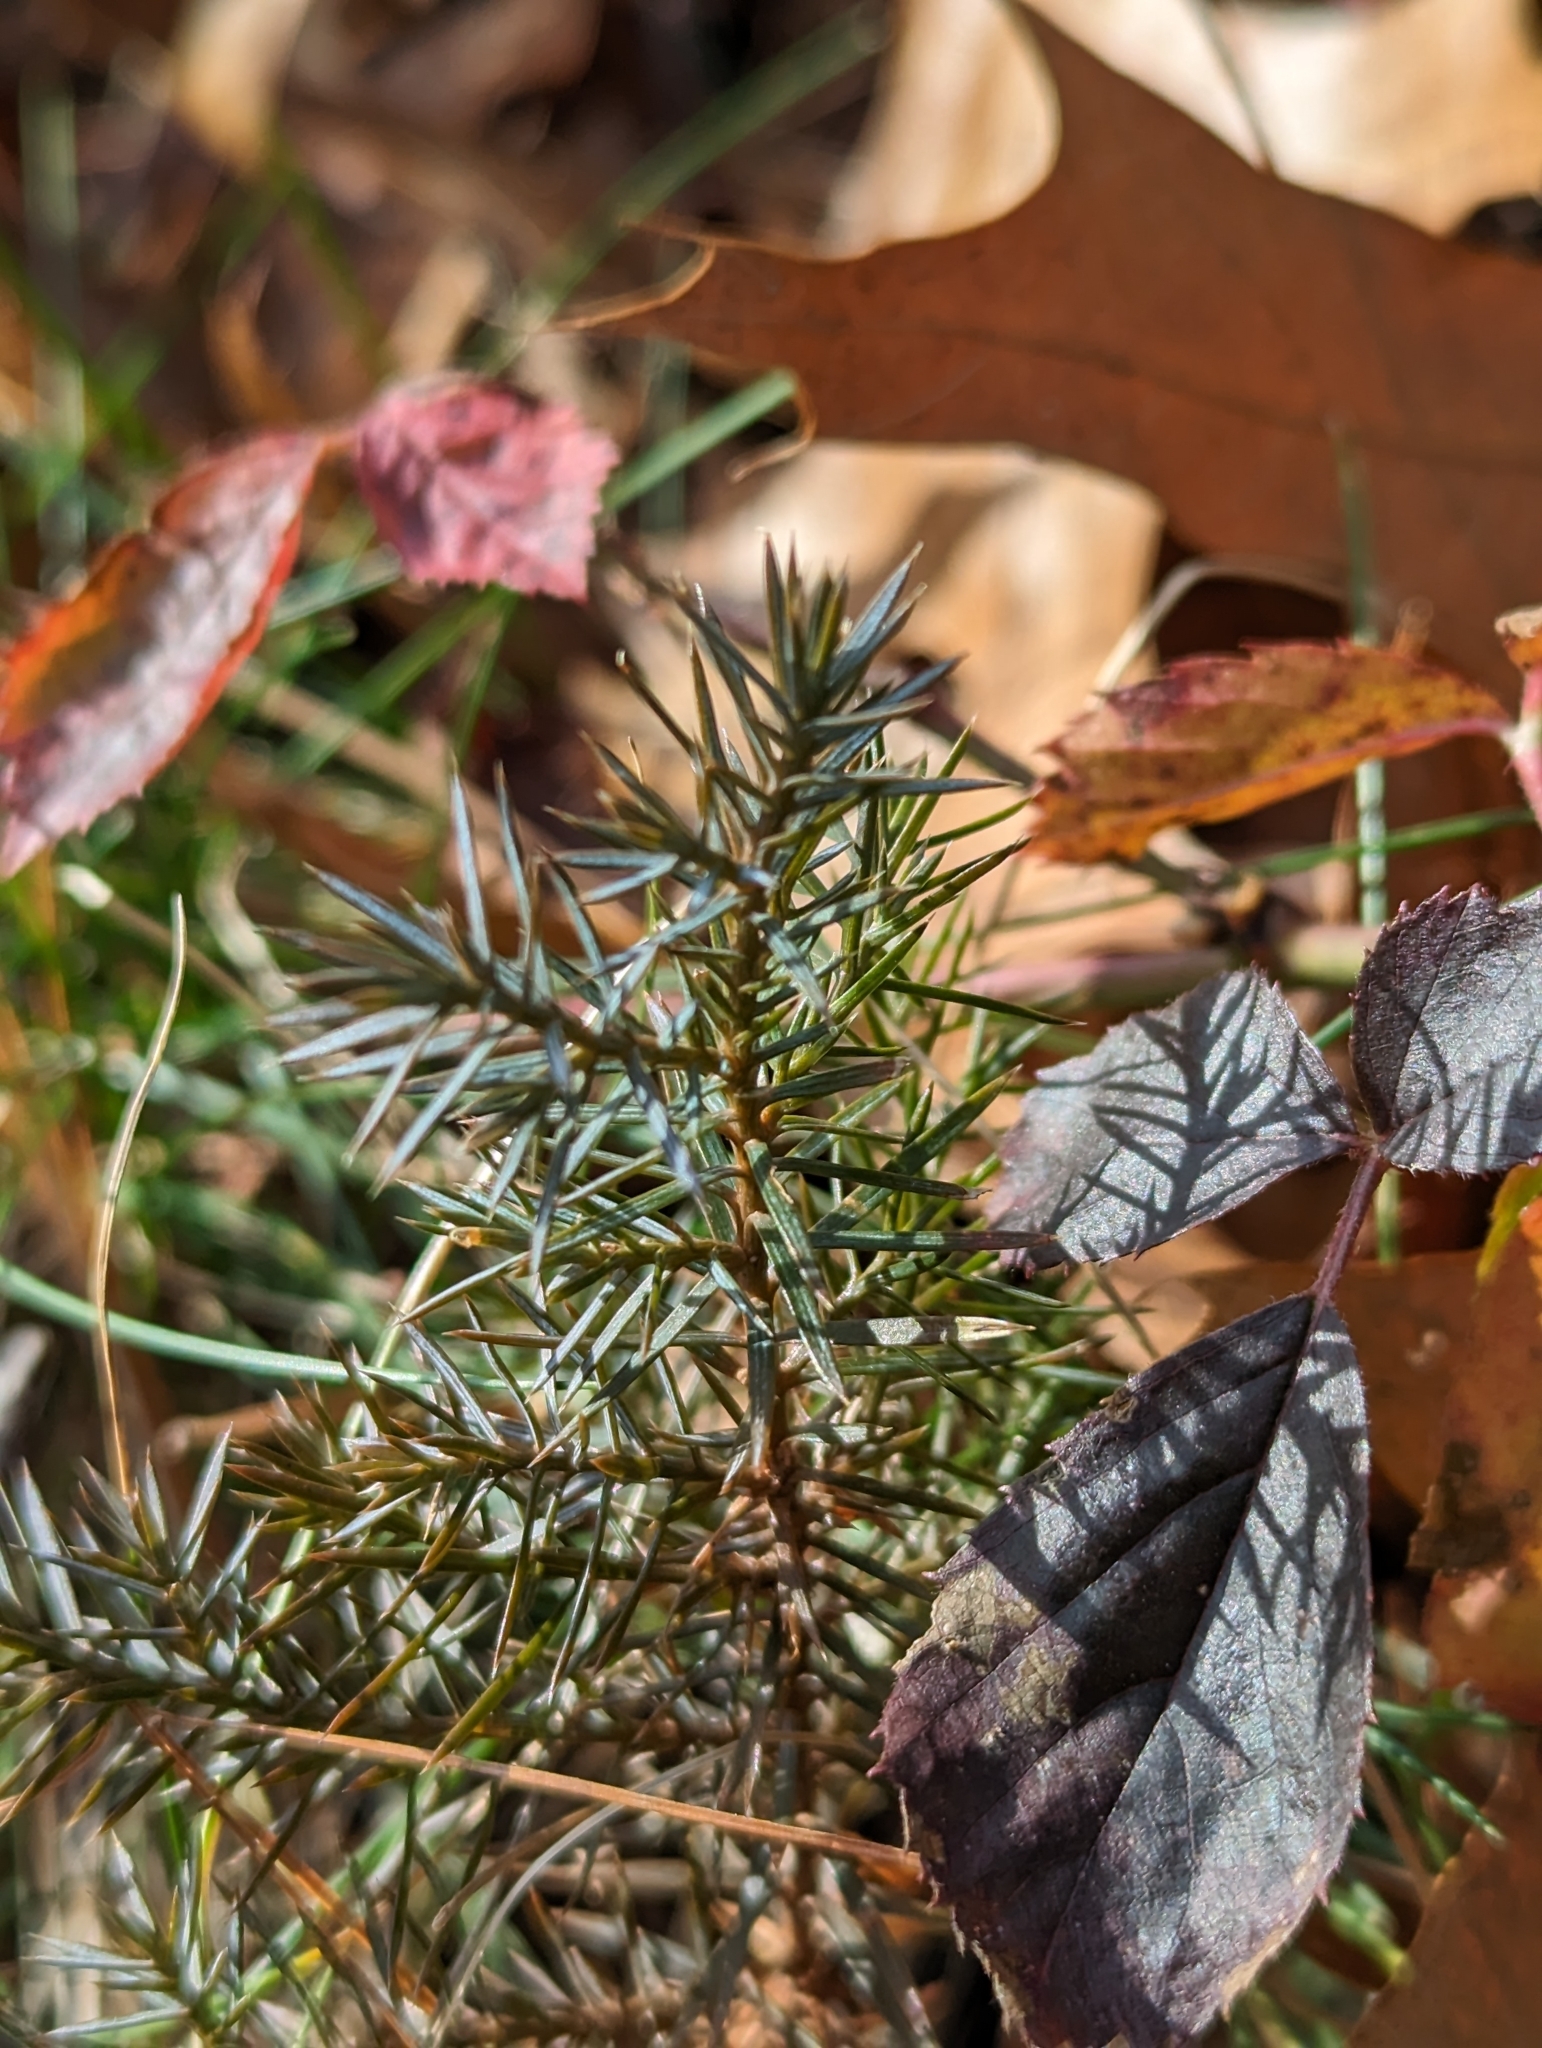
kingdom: Plantae
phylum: Tracheophyta
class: Pinopsida
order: Pinales
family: Cupressaceae
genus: Juniperus
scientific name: Juniperus virginiana
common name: Red juniper
